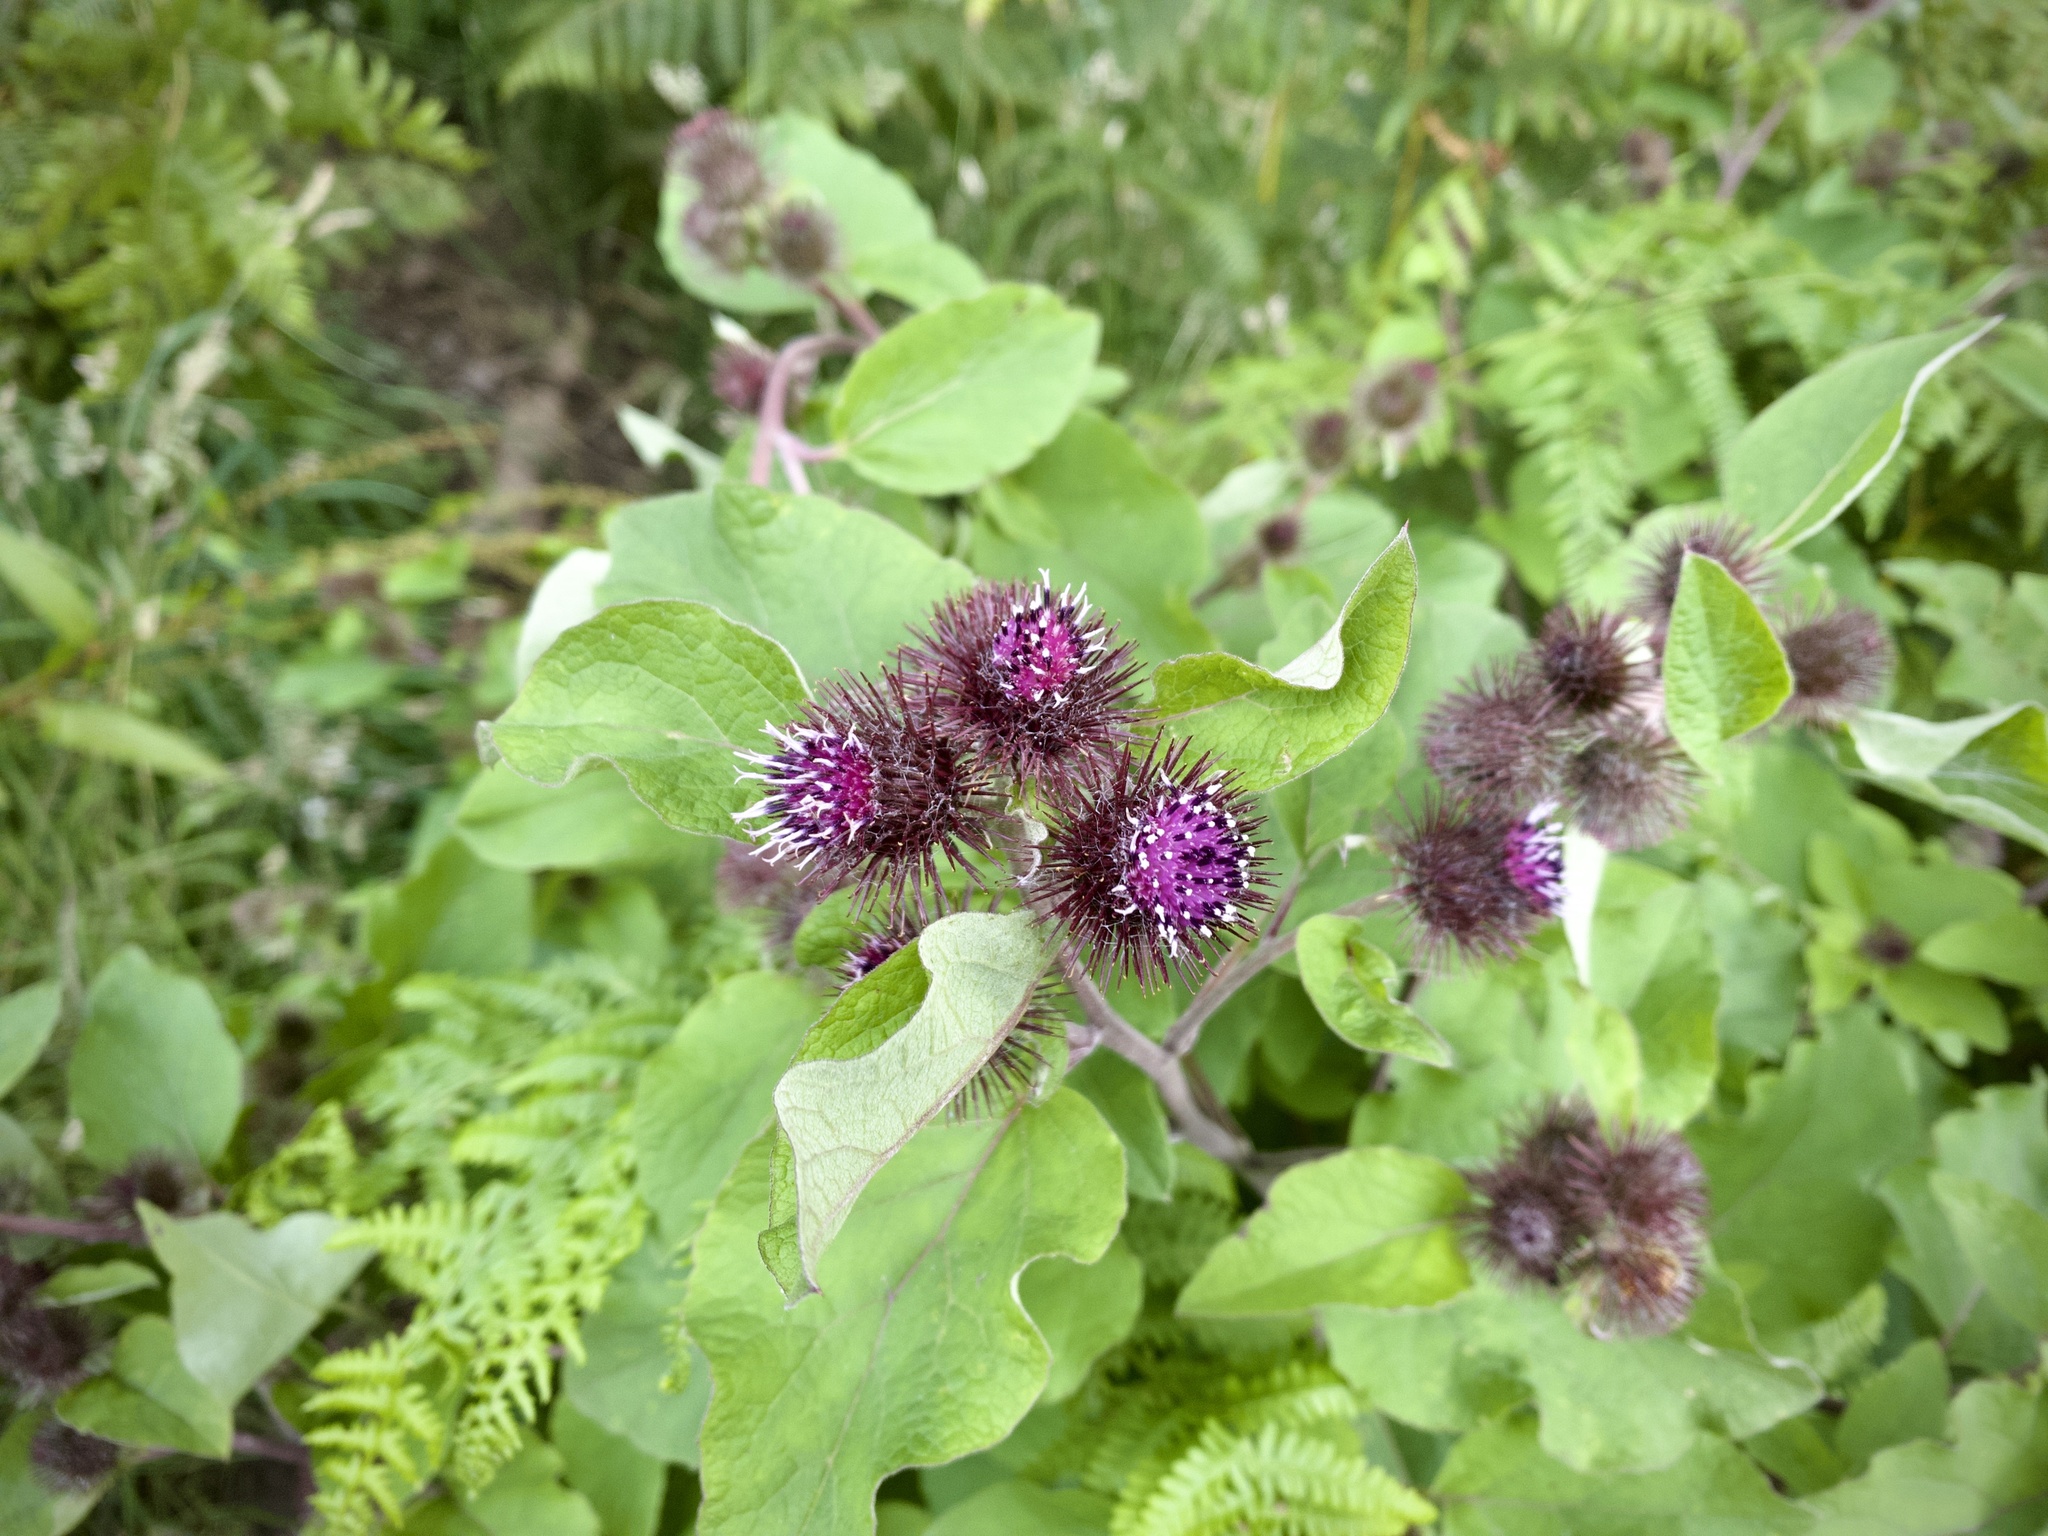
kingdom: Plantae
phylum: Tracheophyta
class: Magnoliopsida
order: Asterales
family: Asteraceae
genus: Arctium
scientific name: Arctium minus
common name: Lesser burdock
